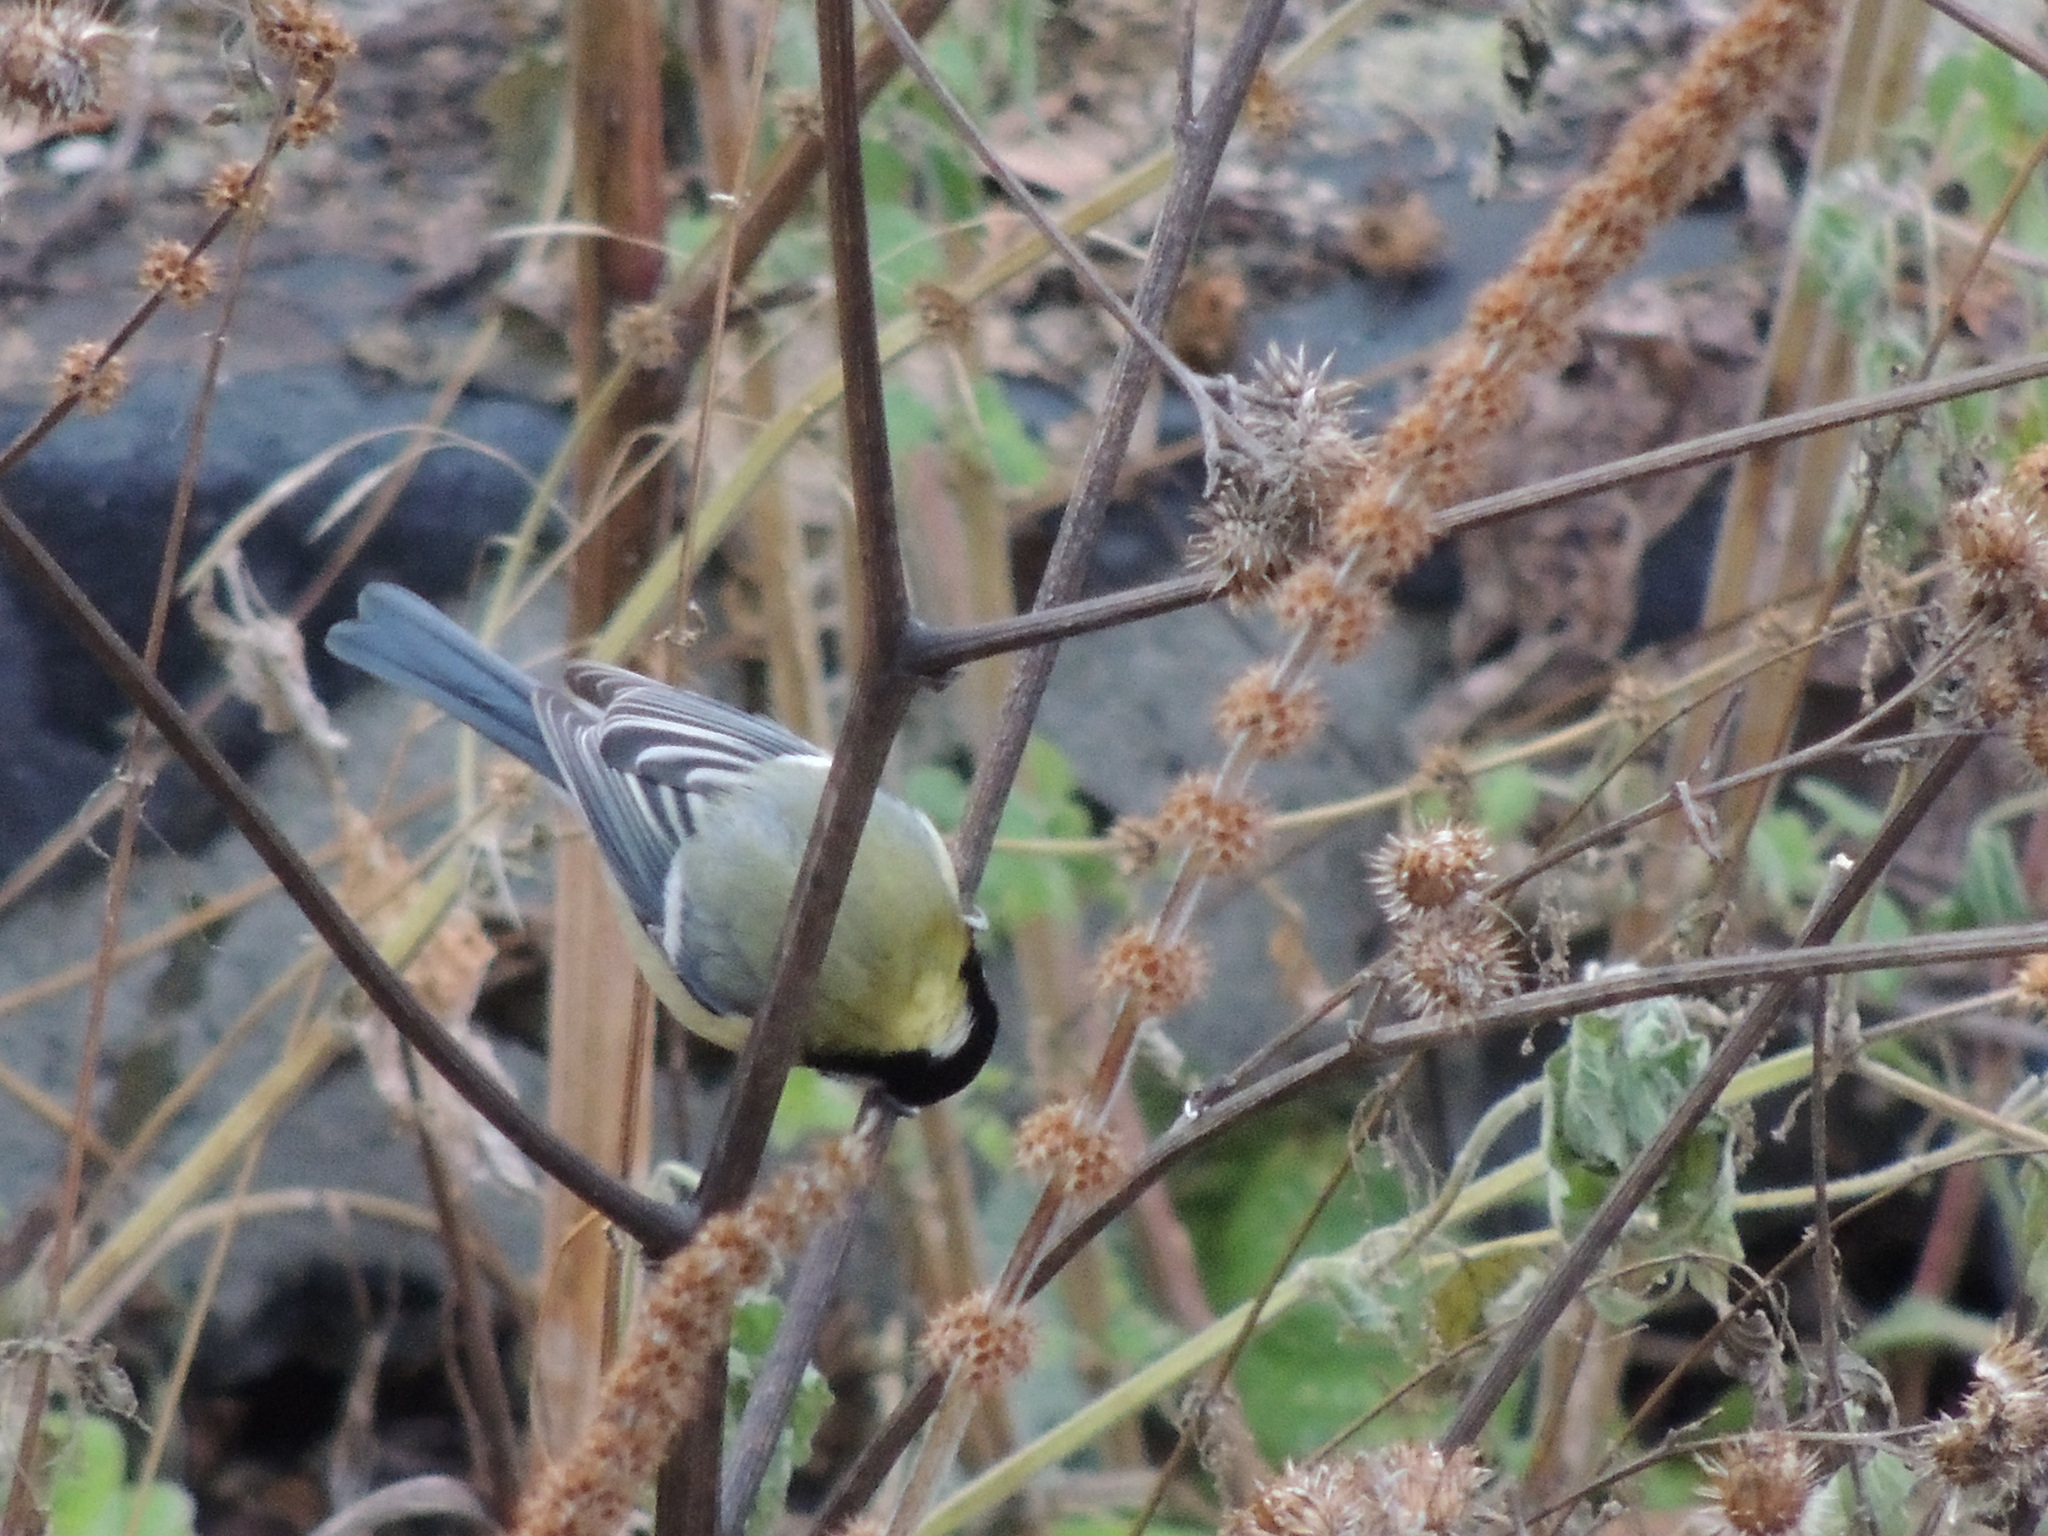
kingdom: Animalia
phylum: Chordata
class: Aves
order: Passeriformes
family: Paridae
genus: Parus
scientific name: Parus major
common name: Great tit
